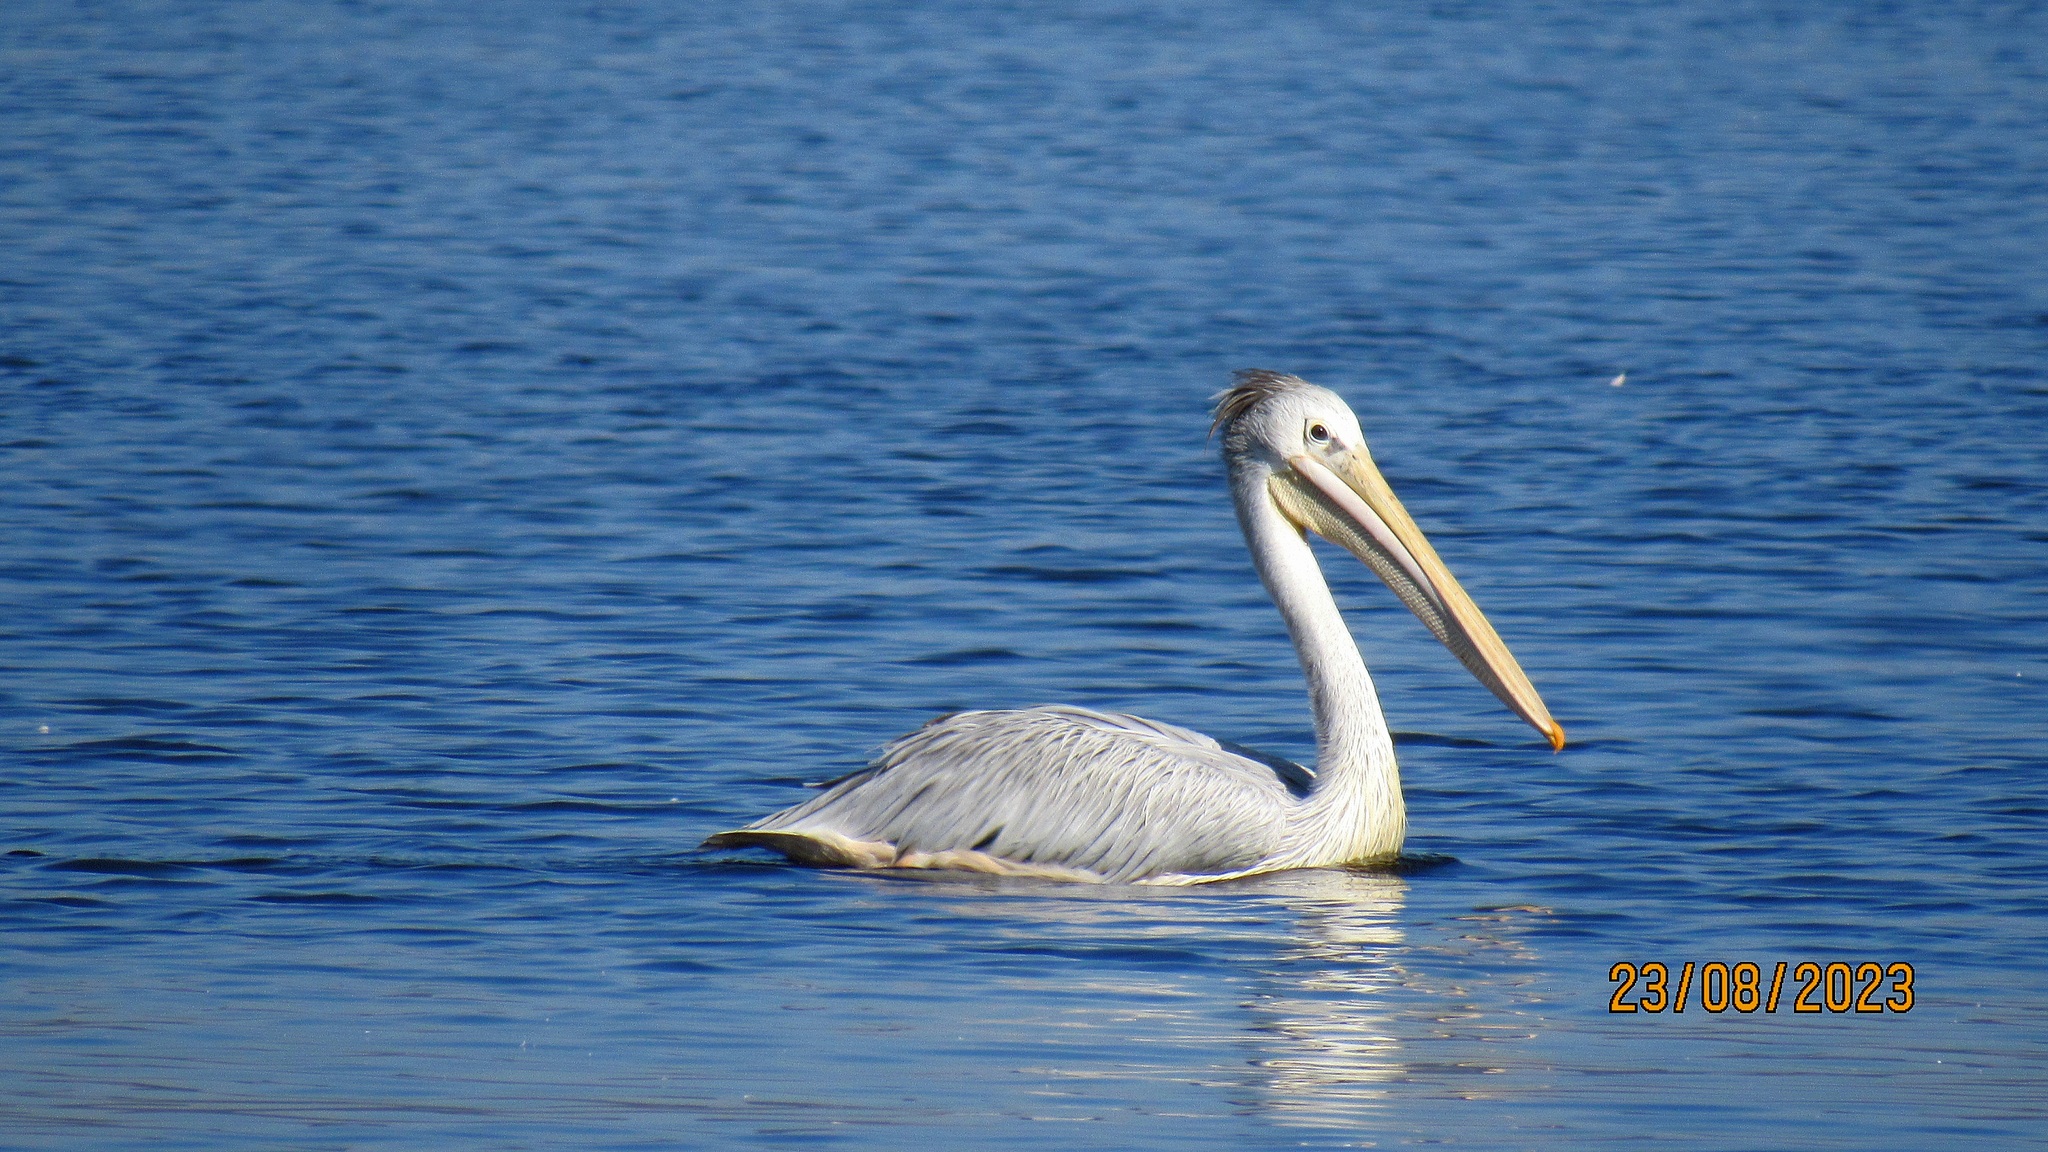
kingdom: Animalia
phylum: Chordata
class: Aves
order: Pelecaniformes
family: Pelecanidae
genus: Pelecanus
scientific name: Pelecanus rufescens
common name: Pink-backed pelican
